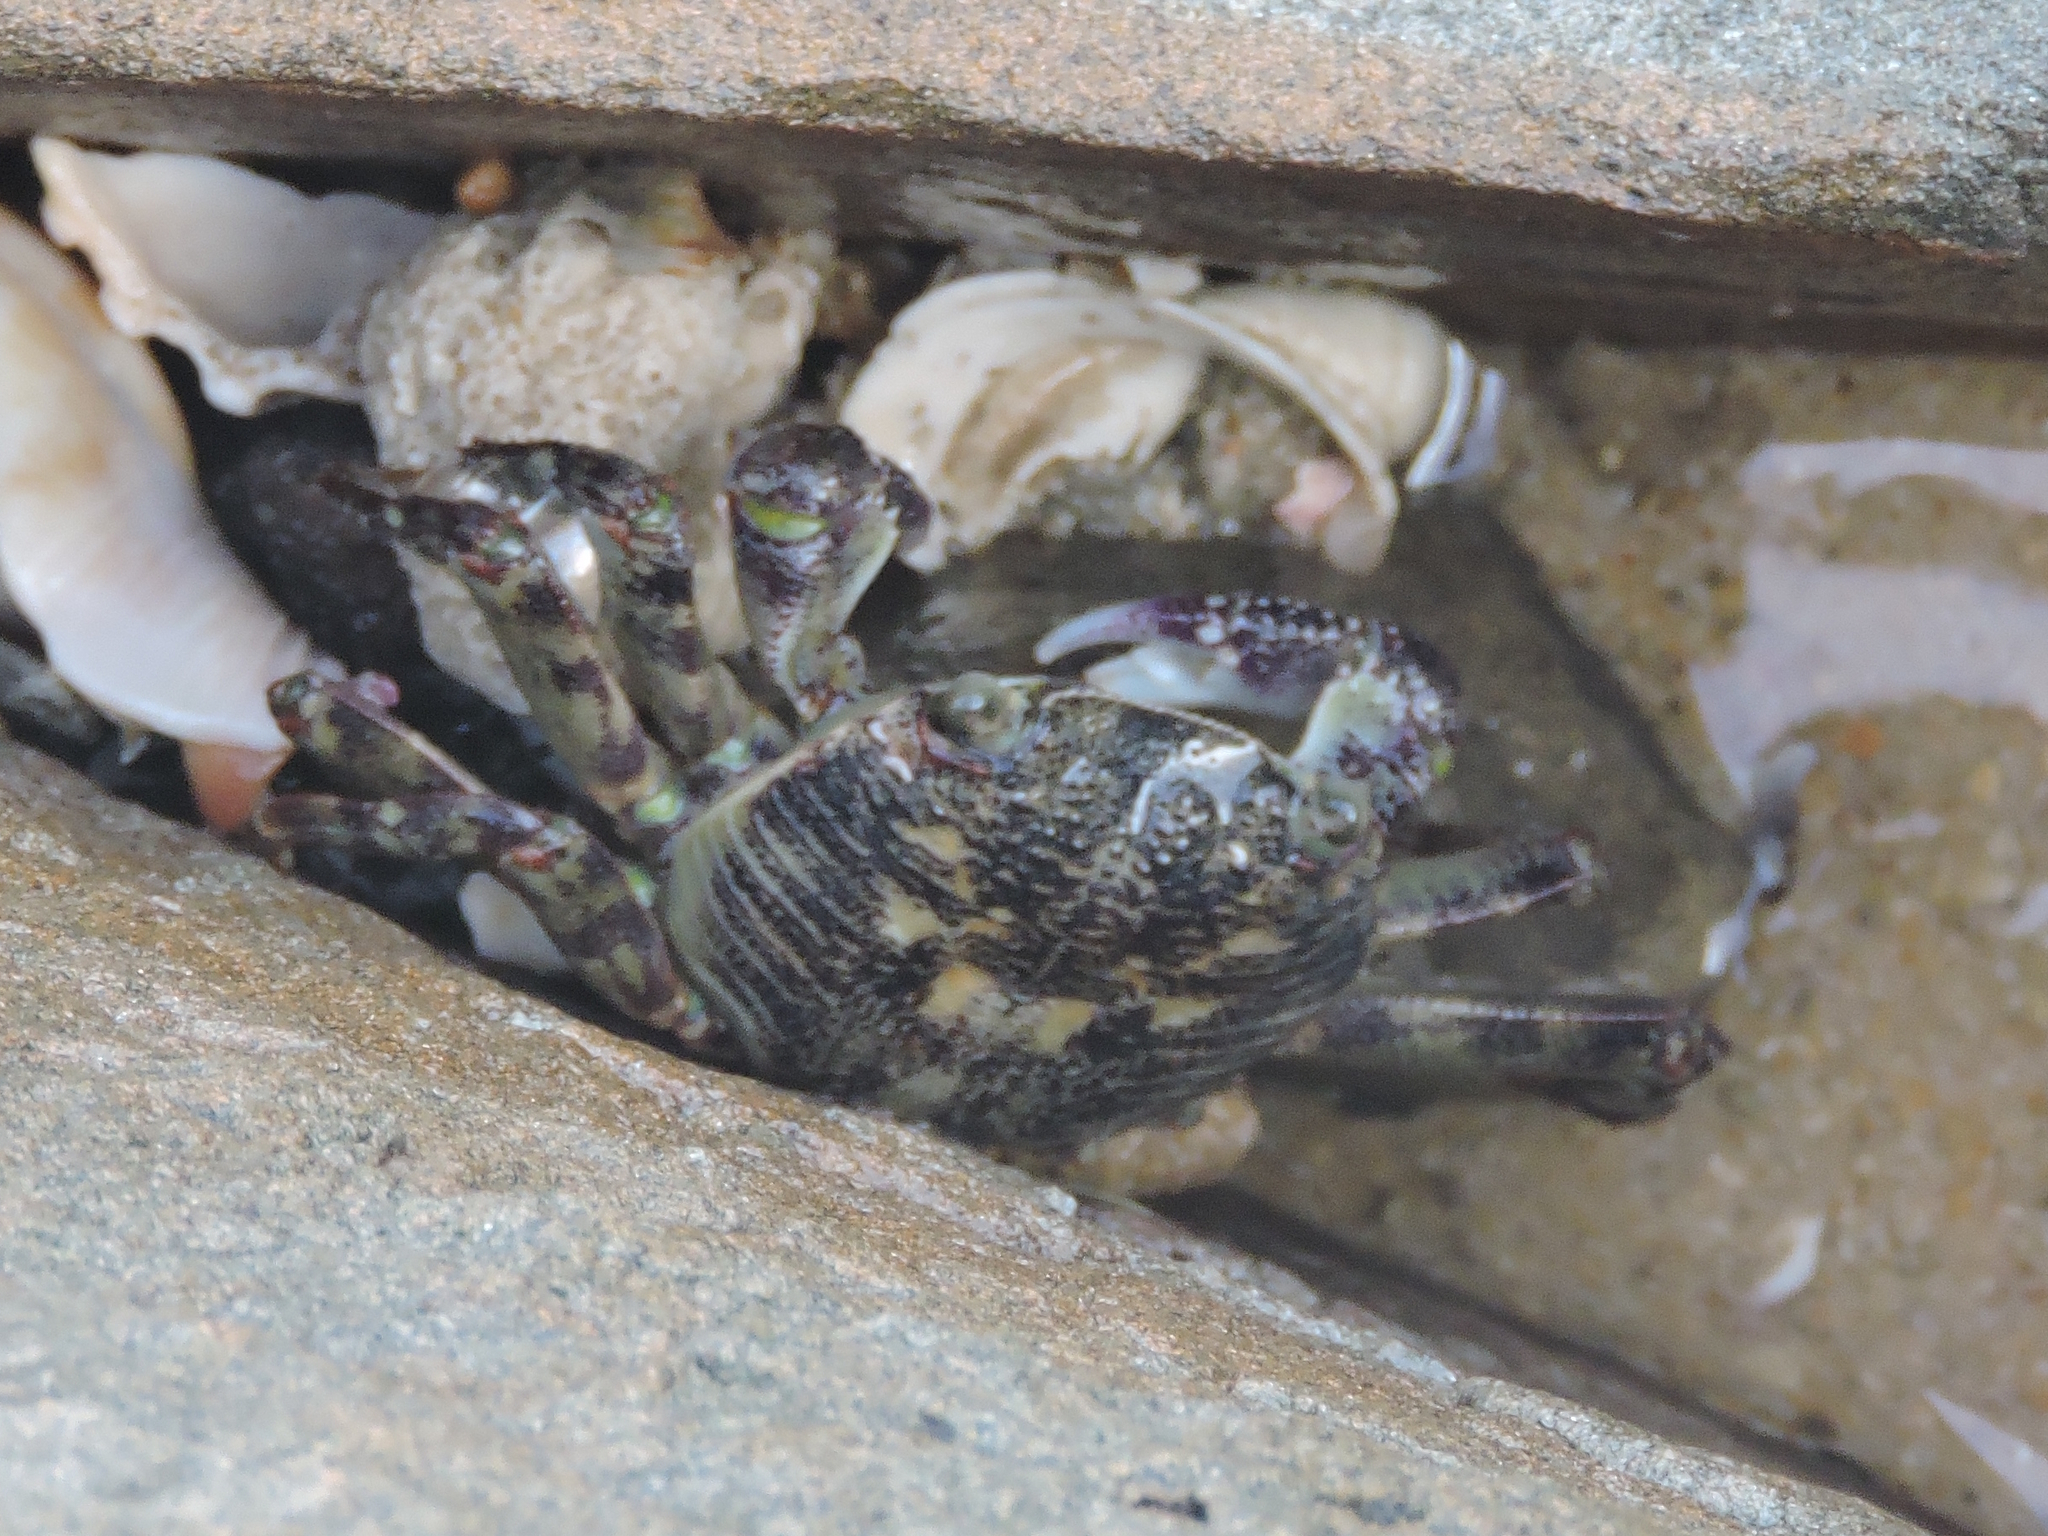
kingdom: Animalia
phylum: Arthropoda
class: Malacostraca
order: Decapoda
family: Grapsidae
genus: Leptograpsus
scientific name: Leptograpsus variegatus
